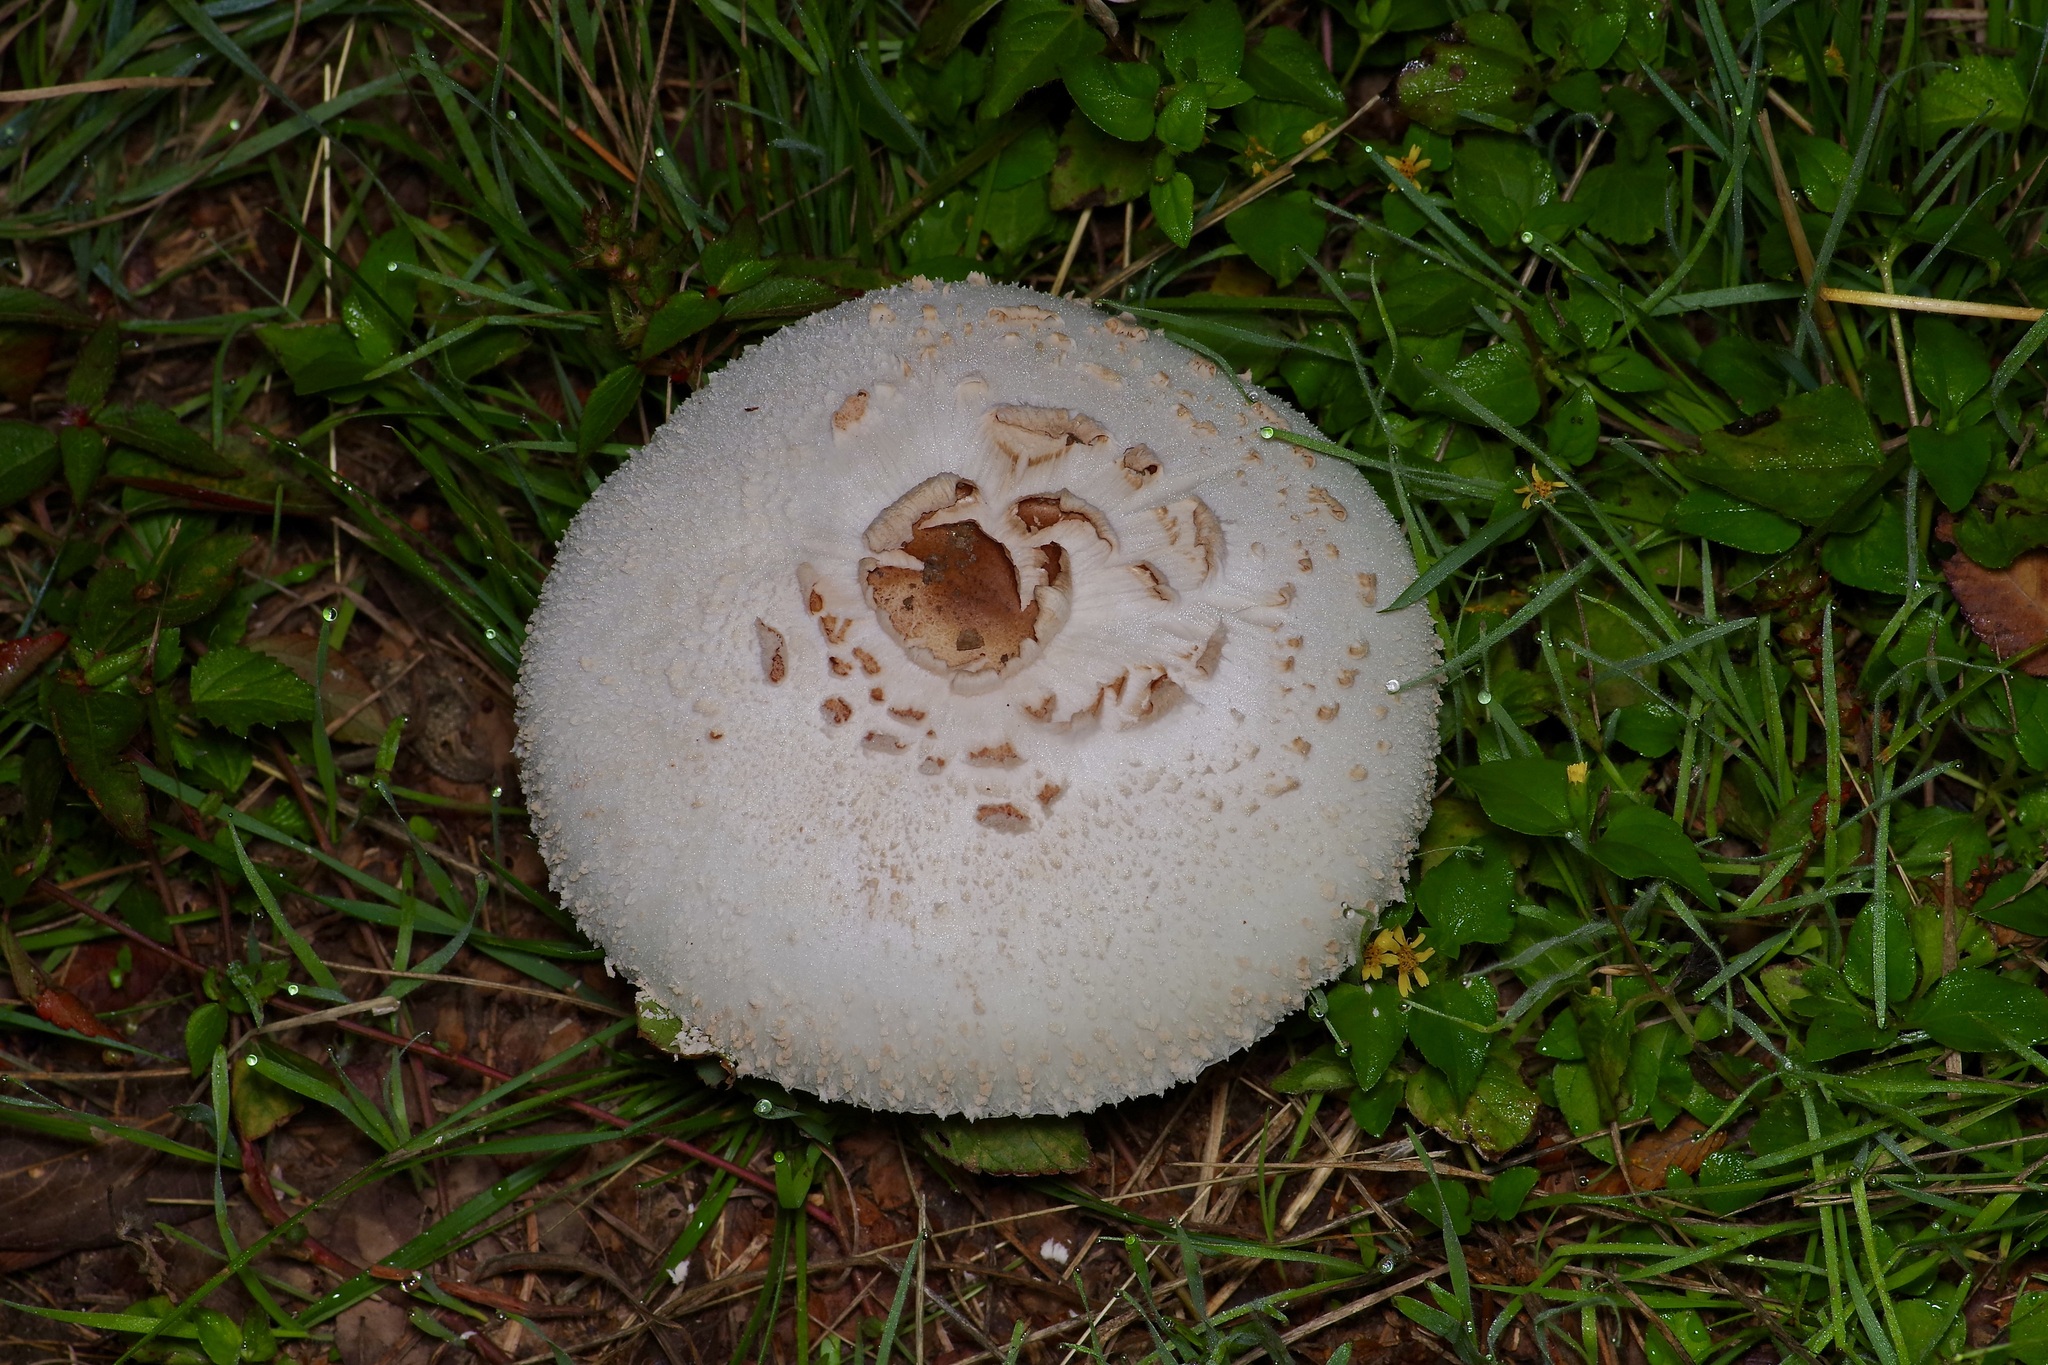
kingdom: Fungi
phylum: Basidiomycota
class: Agaricomycetes
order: Agaricales
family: Agaricaceae
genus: Chlorophyllum
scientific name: Chlorophyllum molybdites
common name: False parasol
